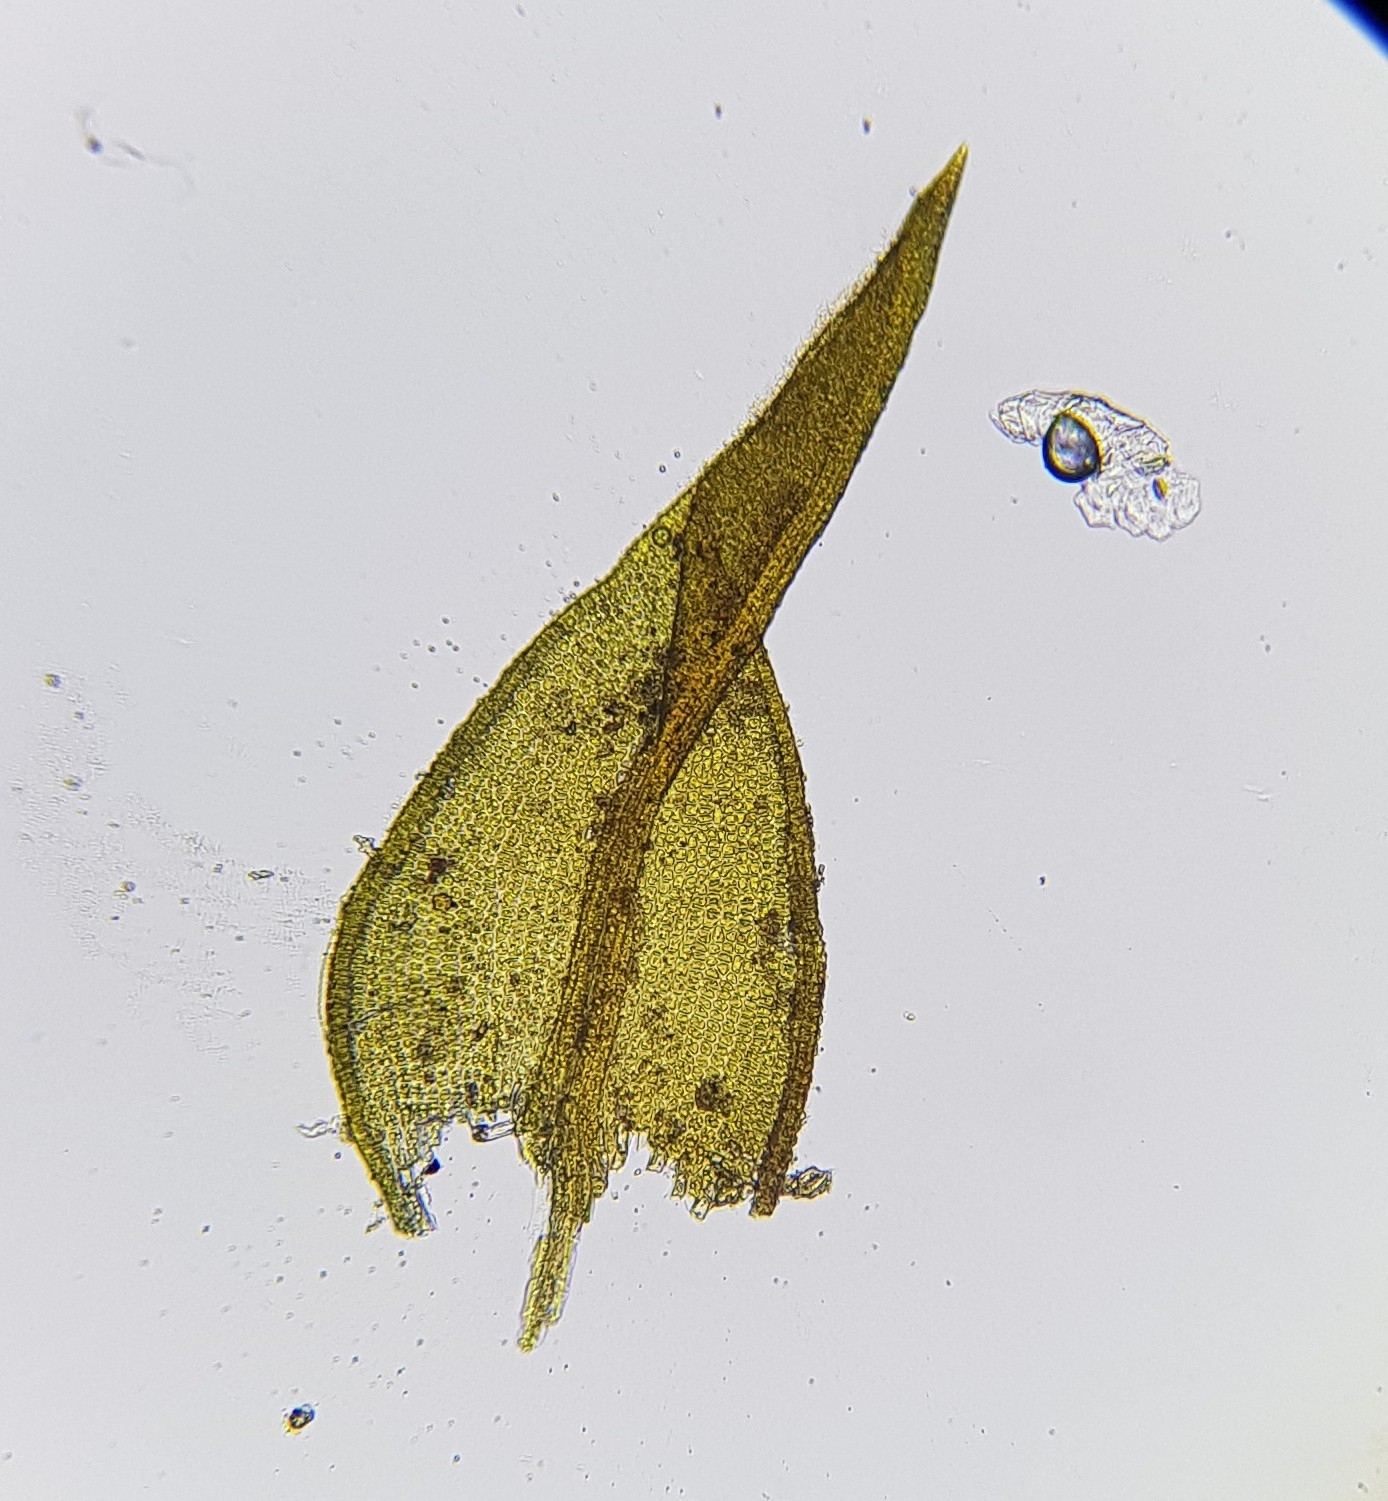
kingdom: Plantae
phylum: Bryophyta
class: Bryopsida
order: Pottiales
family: Pottiaceae
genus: Geheebia
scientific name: Geheebia fallax
